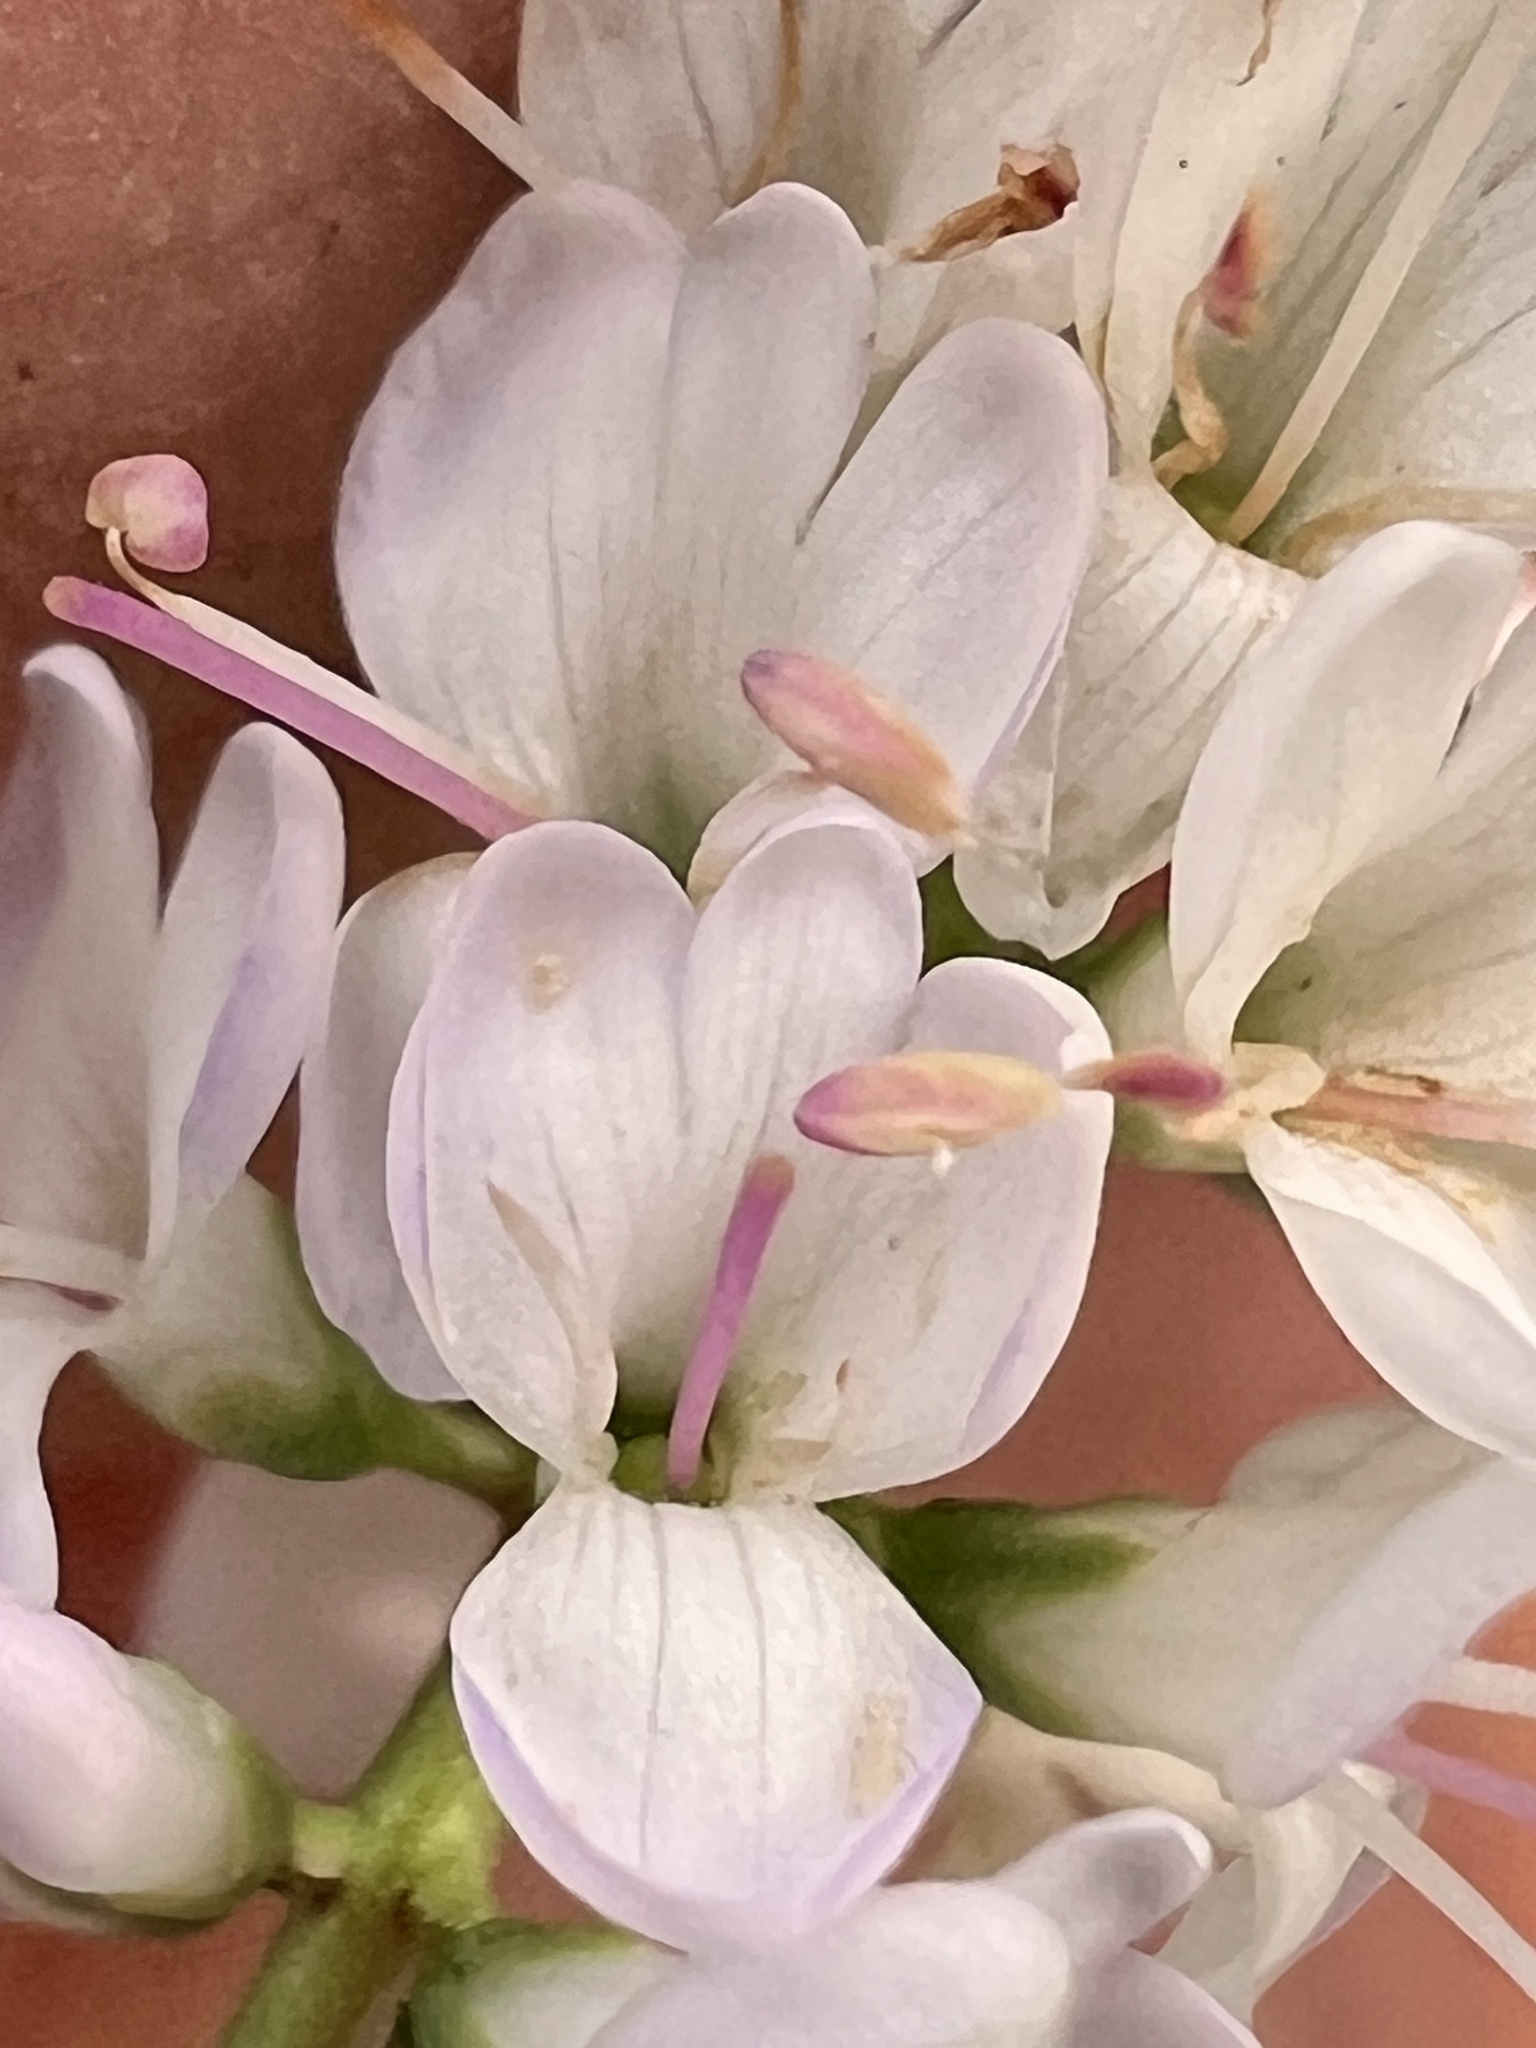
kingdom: Plantae
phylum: Tracheophyta
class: Magnoliopsida
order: Lamiales
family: Plantaginaceae
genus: Veronica
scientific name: Veronica strictissima
